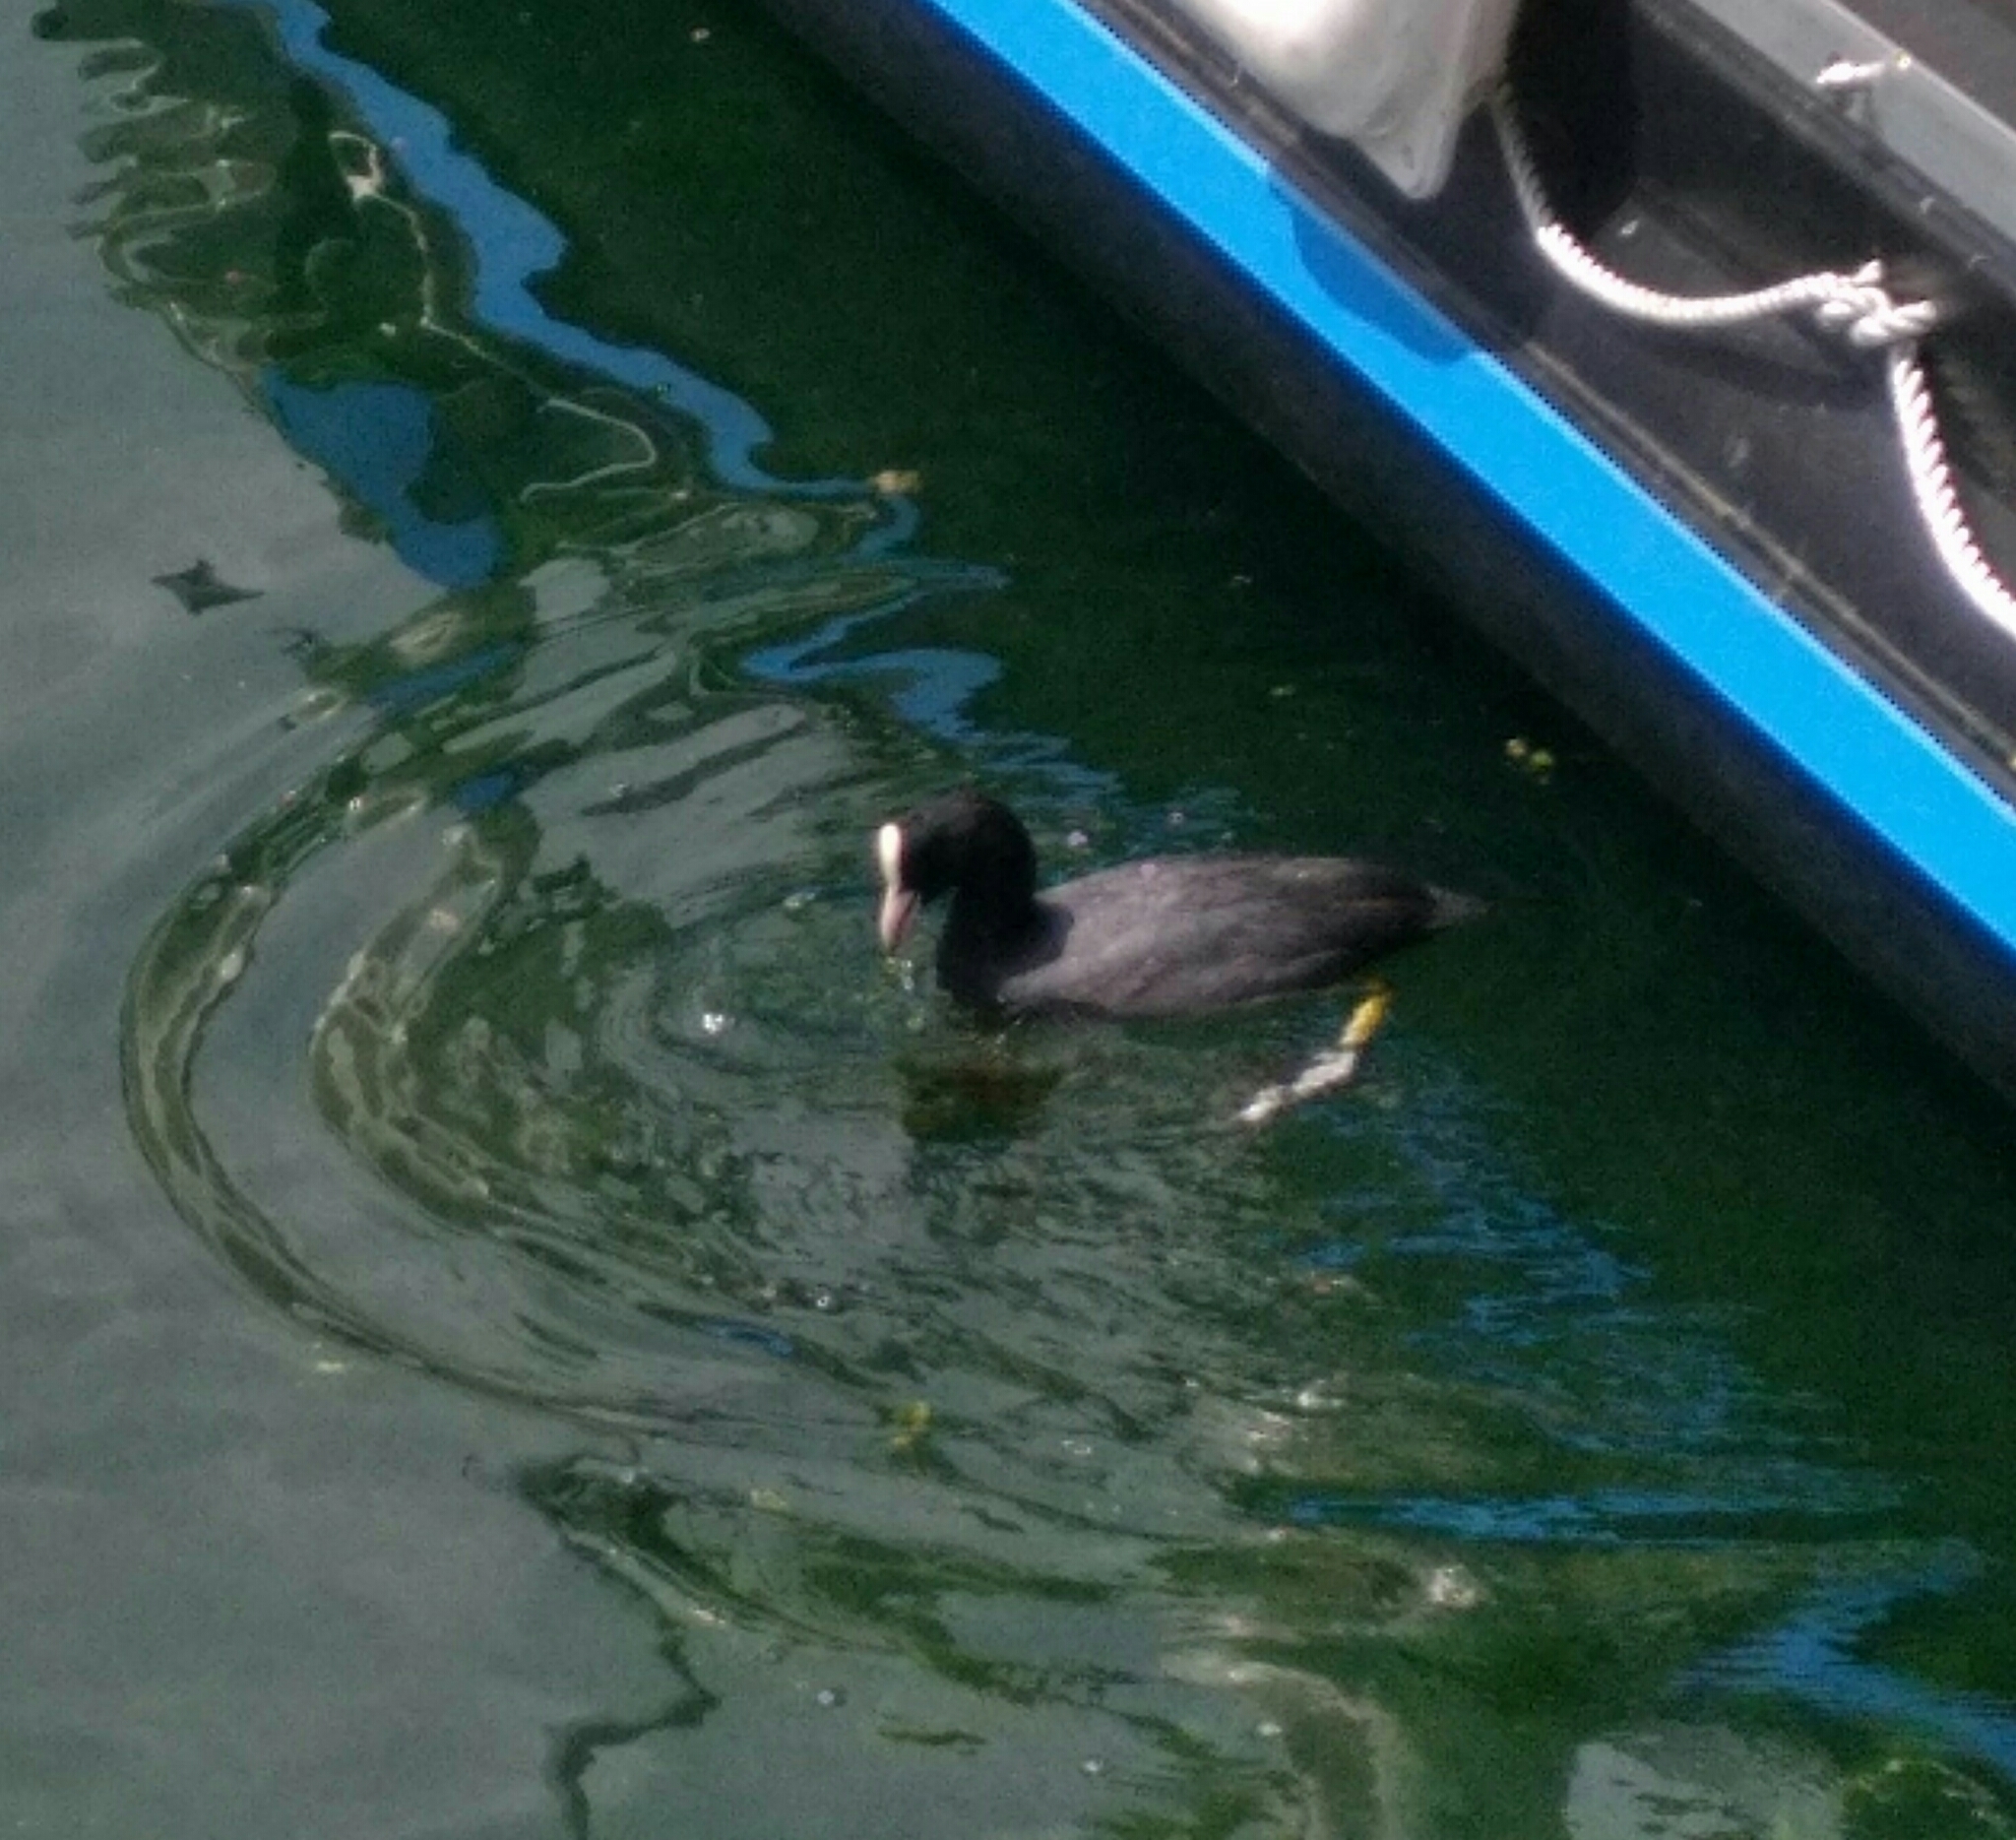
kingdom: Animalia
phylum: Chordata
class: Aves
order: Gruiformes
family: Rallidae
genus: Fulica
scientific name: Fulica atra
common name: Eurasian coot
